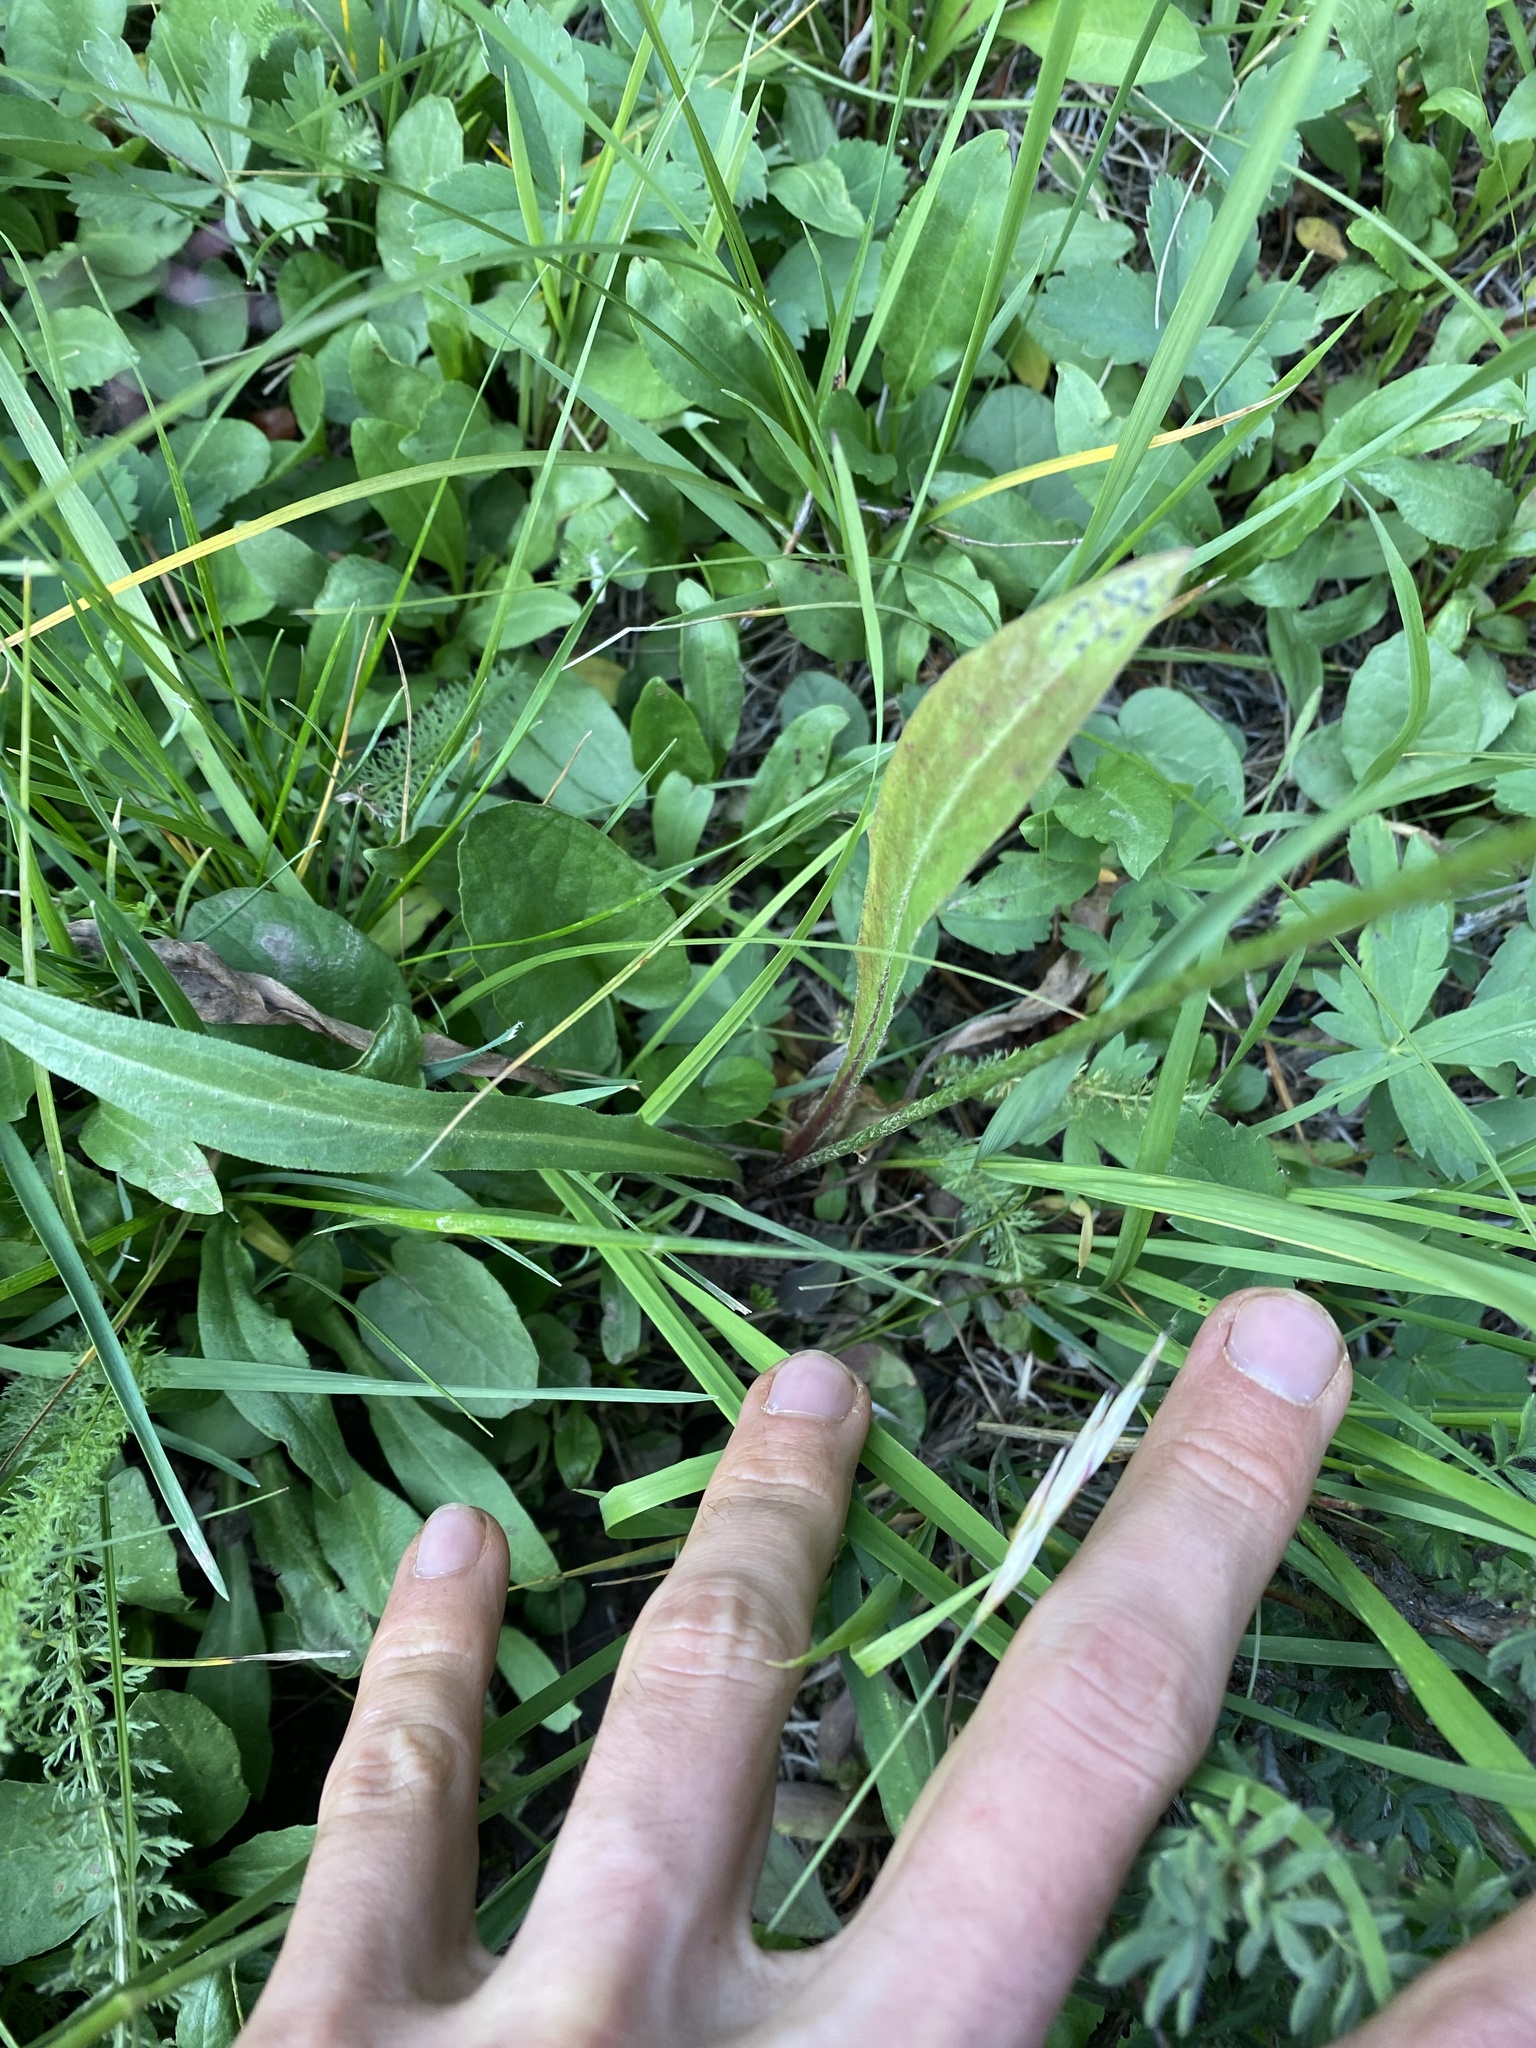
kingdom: Plantae
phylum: Tracheophyta
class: Magnoliopsida
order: Asterales
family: Asteraceae
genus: Agoseris
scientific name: Agoseris aurantiaca
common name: Mountain agoseris
